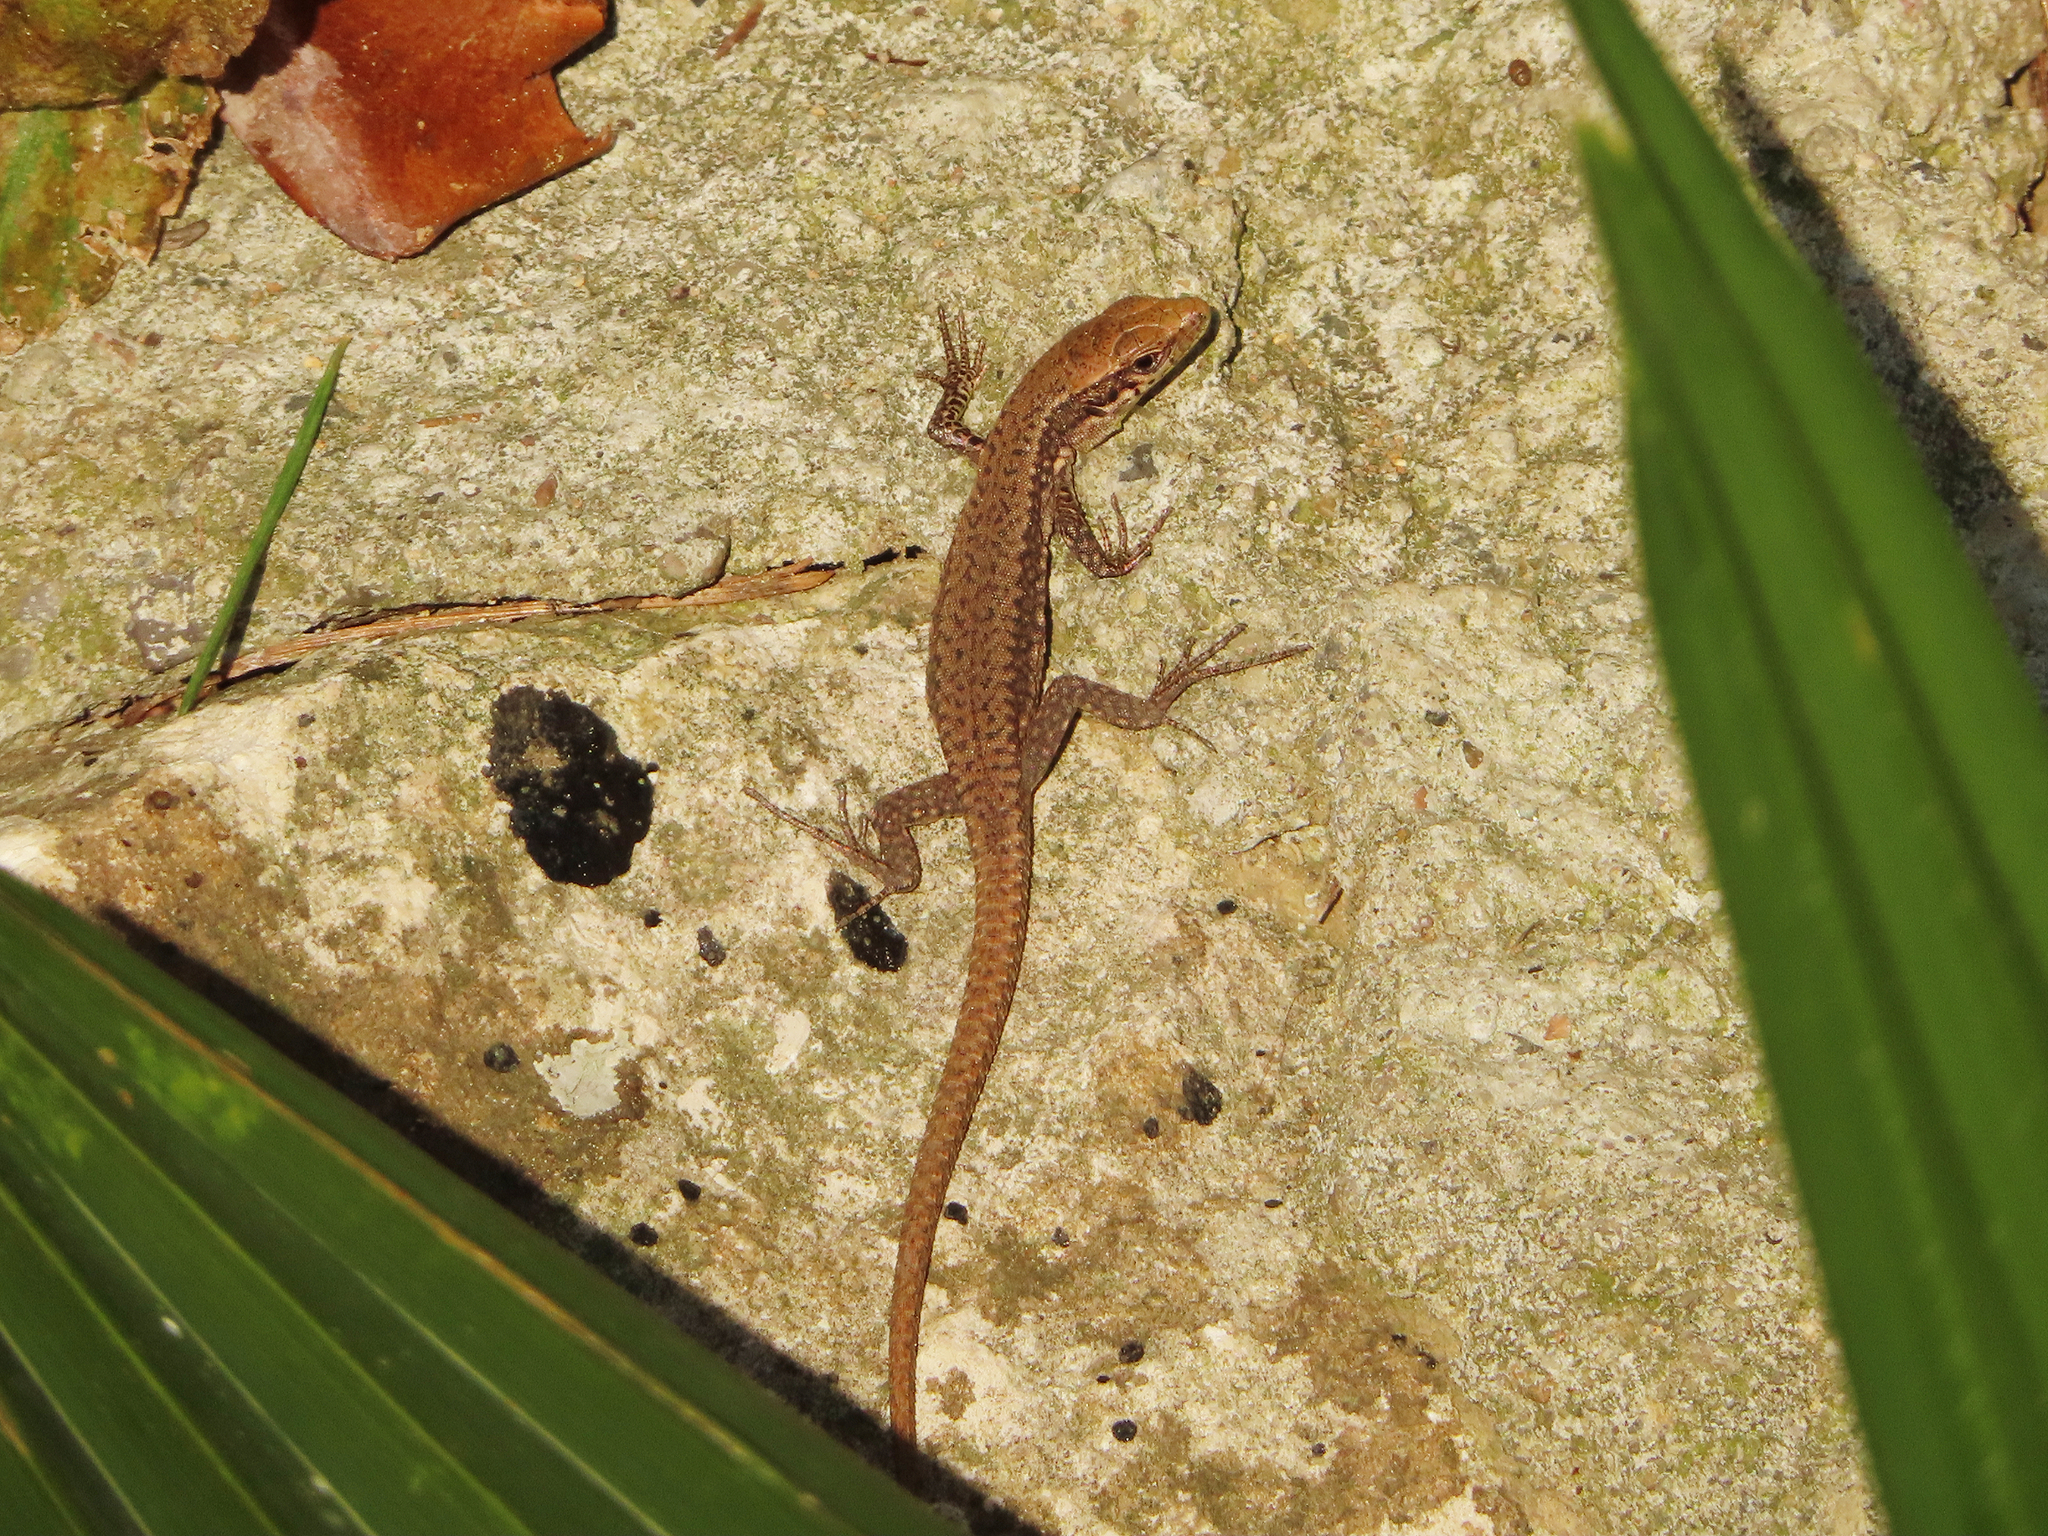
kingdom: Animalia
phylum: Chordata
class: Squamata
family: Lacertidae
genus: Darevskia
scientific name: Darevskia mixta
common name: Ajarian lizard
